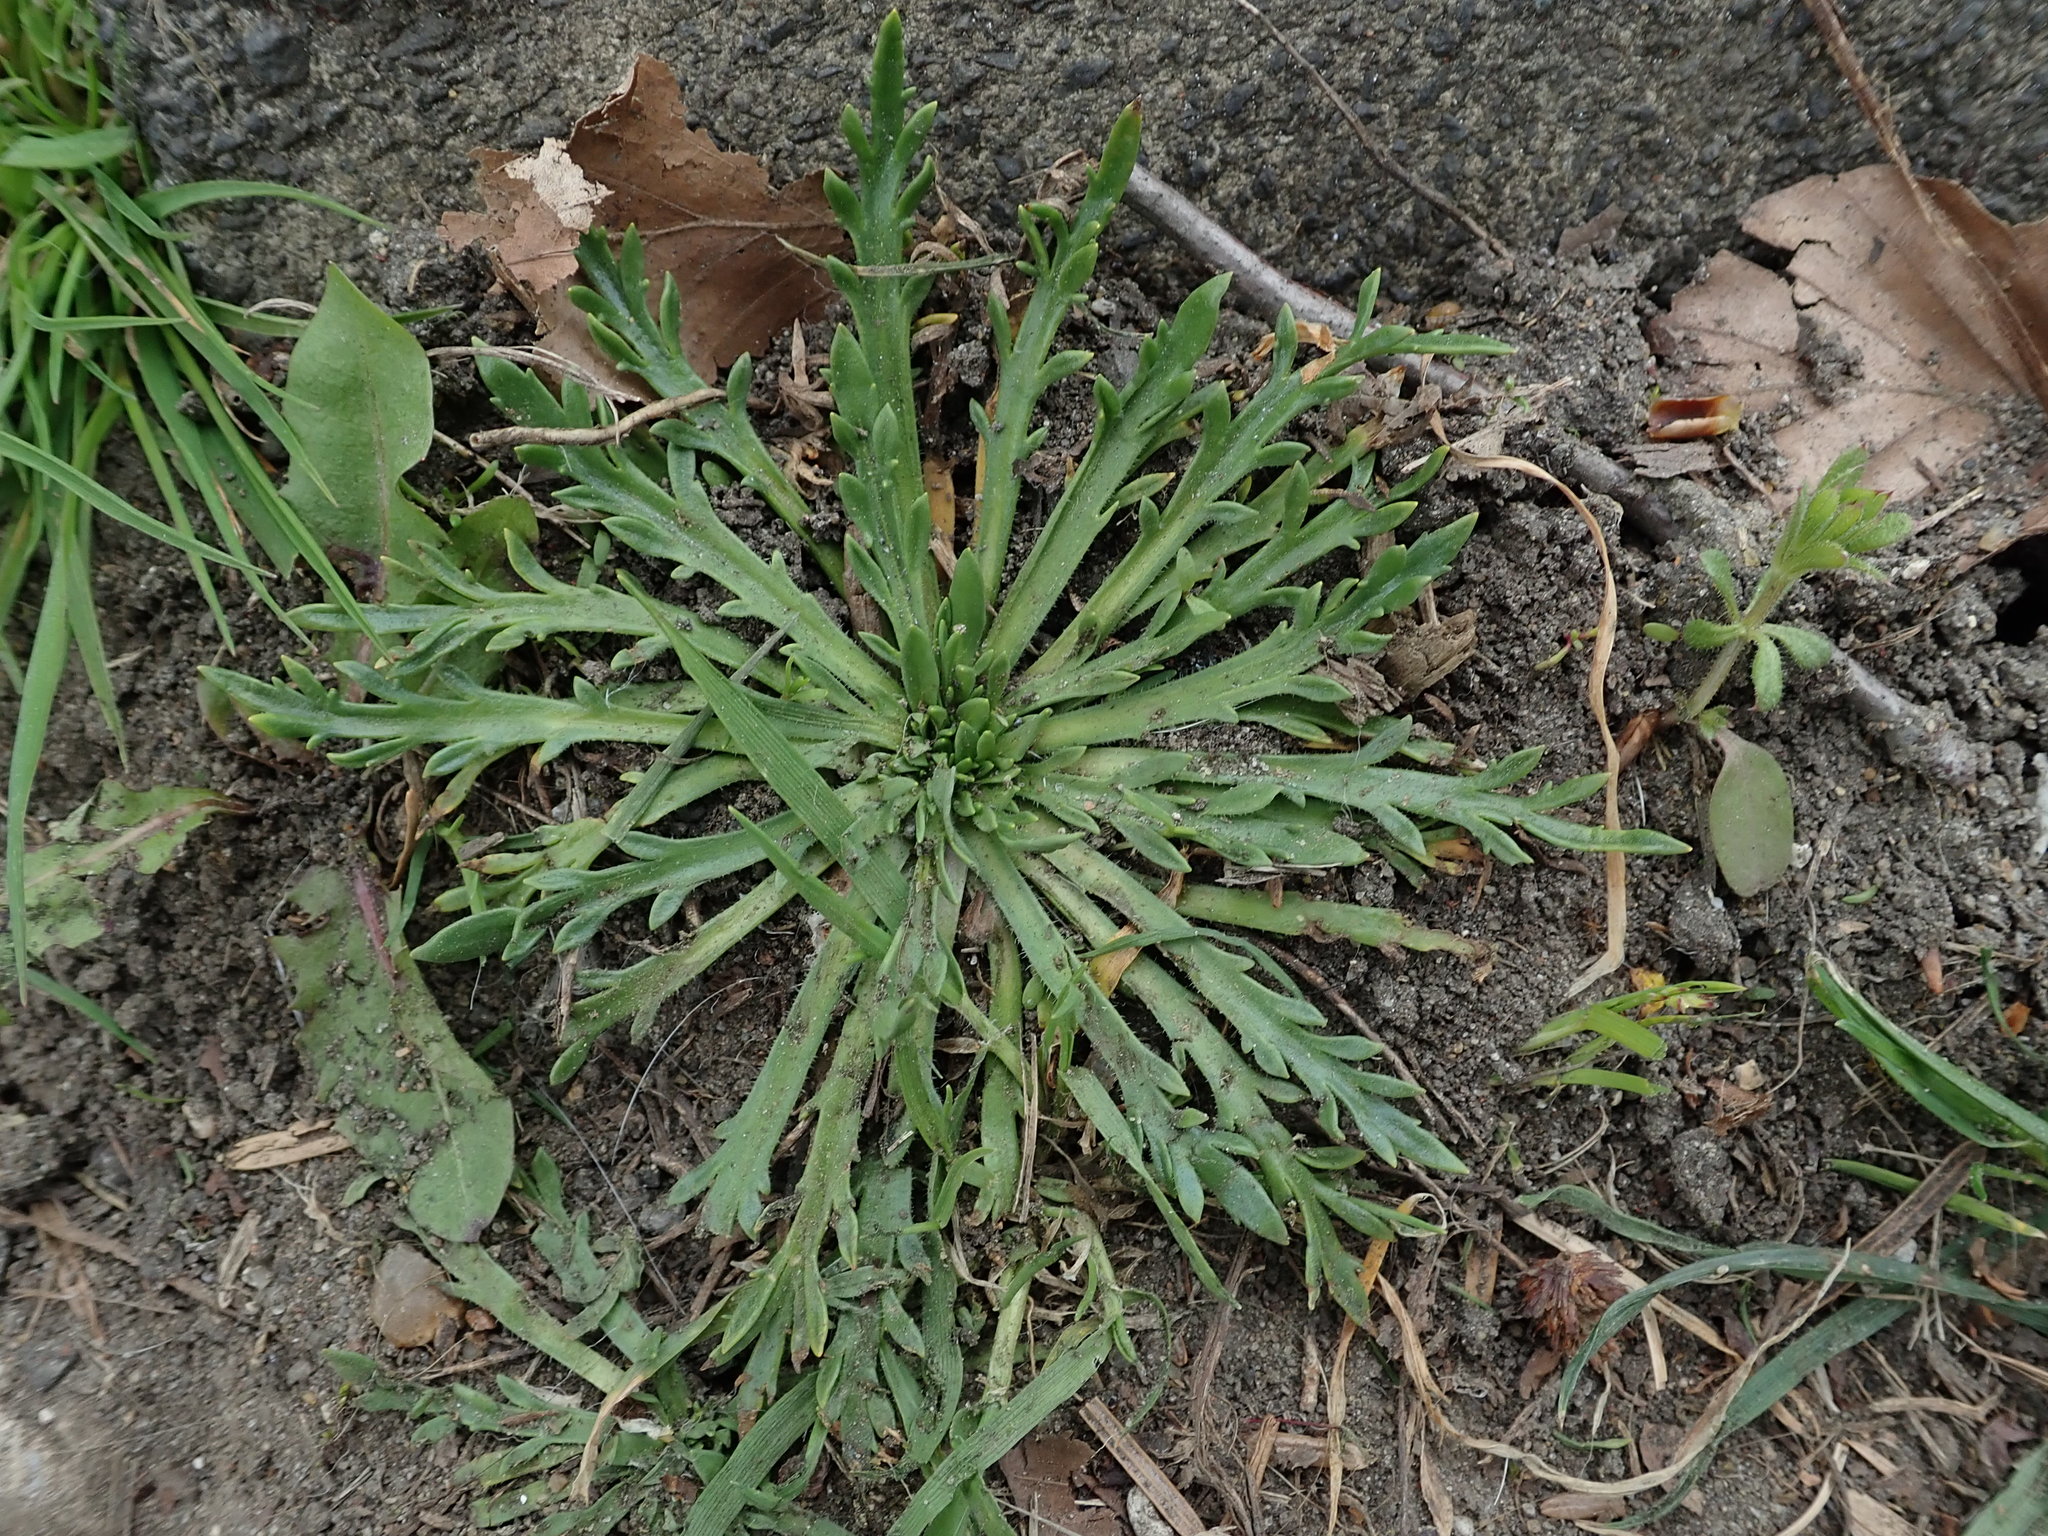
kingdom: Plantae
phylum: Tracheophyta
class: Magnoliopsida
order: Lamiales
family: Plantaginaceae
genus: Plantago
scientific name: Plantago coronopus
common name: Buck's-horn plantain
